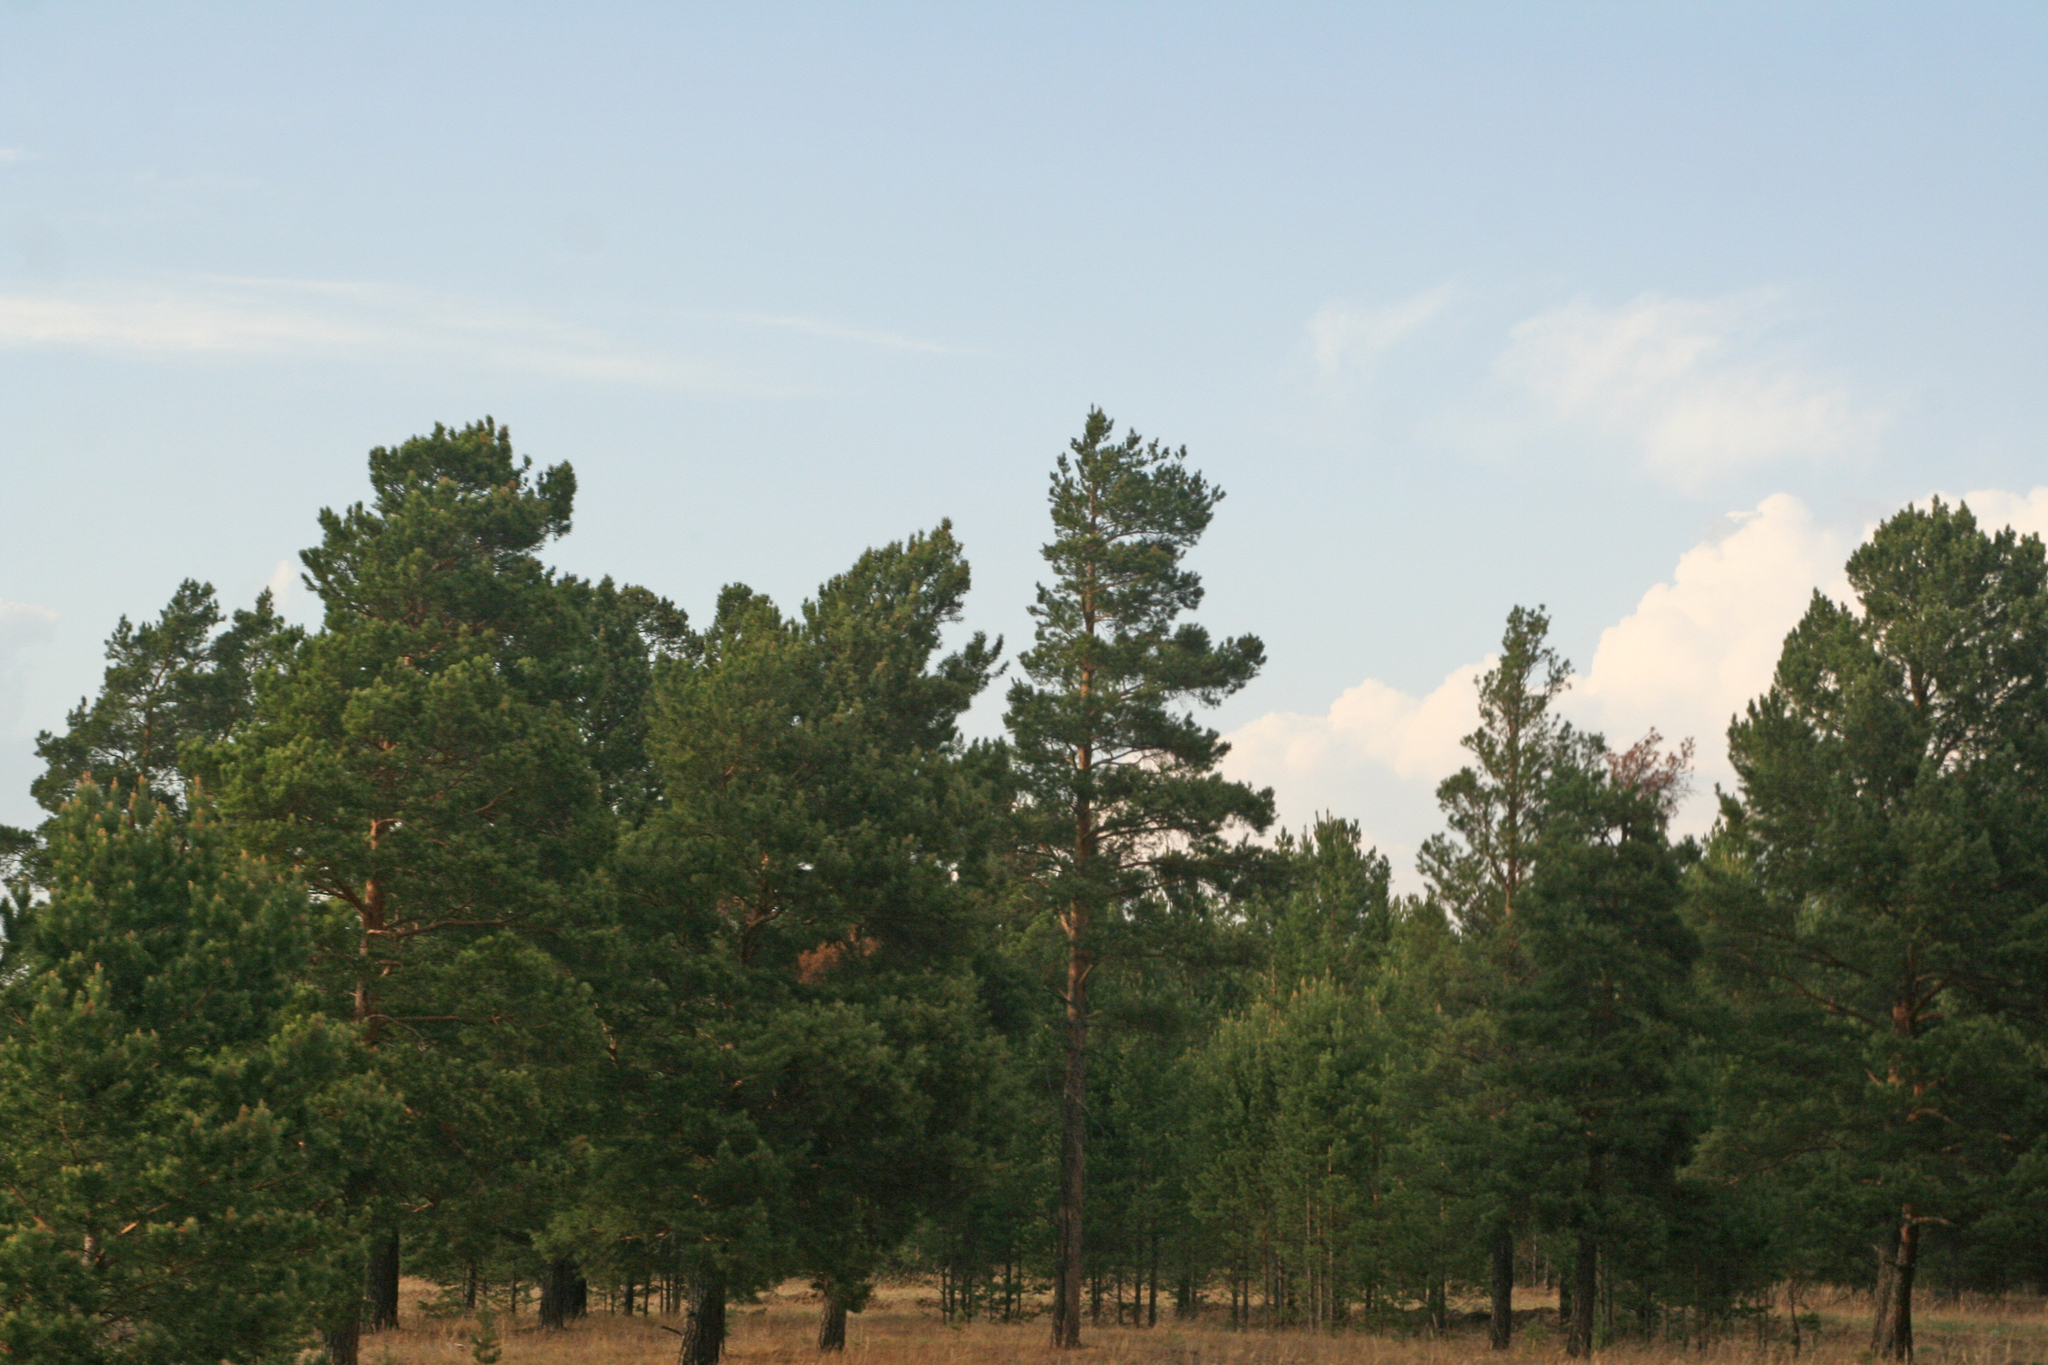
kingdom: Plantae
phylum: Tracheophyta
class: Pinopsida
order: Pinales
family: Pinaceae
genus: Pinus
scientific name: Pinus sylvestris
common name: Scots pine
